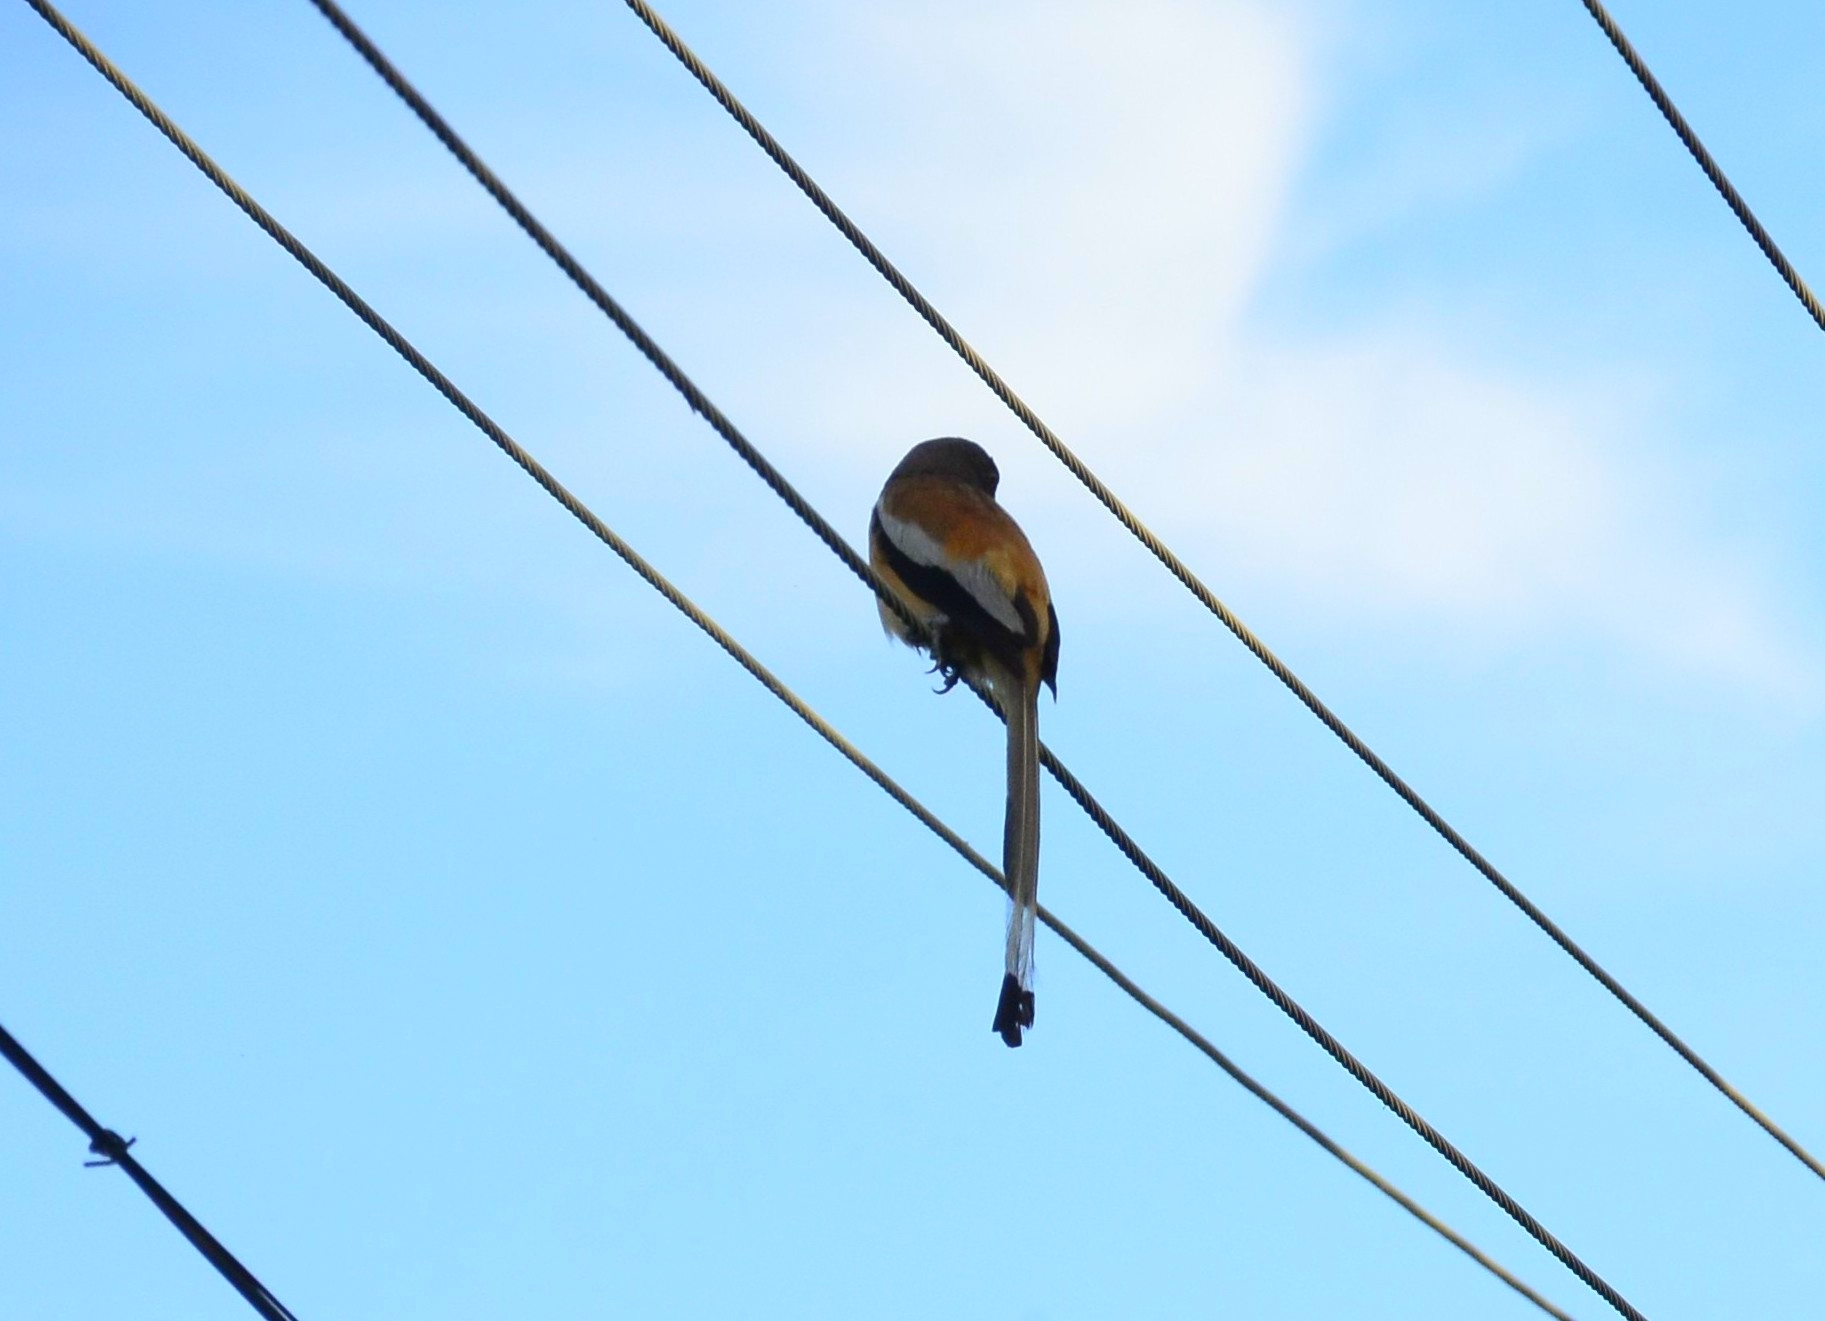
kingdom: Animalia
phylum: Chordata
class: Aves
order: Passeriformes
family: Corvidae
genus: Dendrocitta
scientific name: Dendrocitta vagabunda
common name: Rufous treepie
